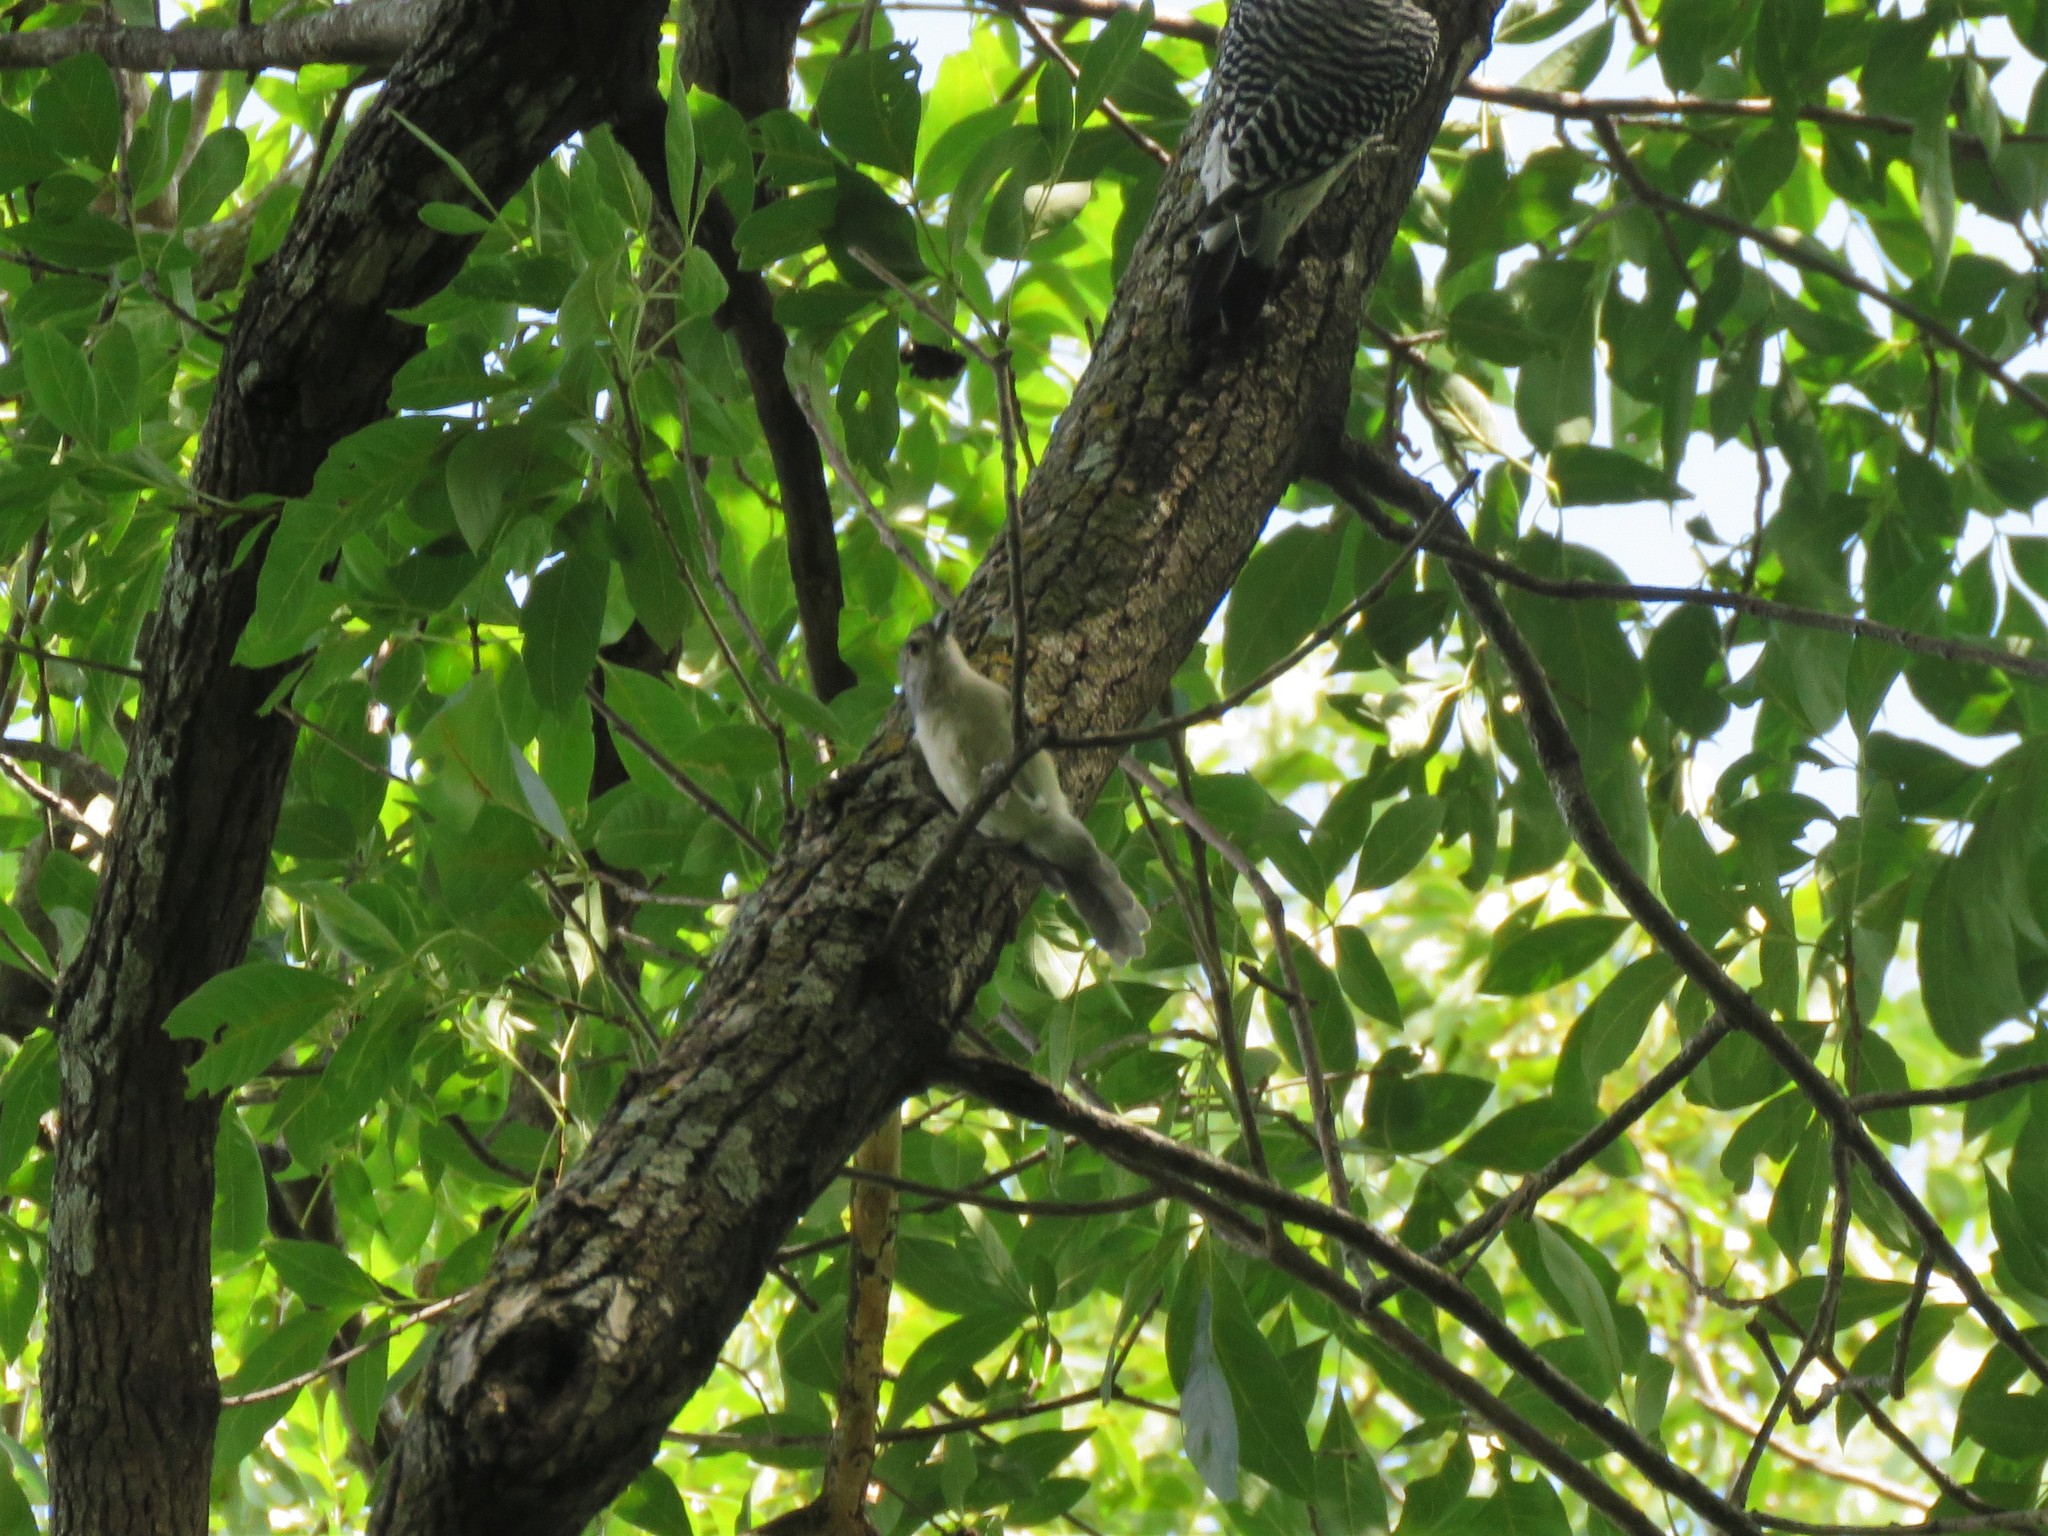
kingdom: Animalia
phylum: Chordata
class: Aves
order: Passeriformes
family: Paridae
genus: Baeolophus
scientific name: Baeolophus bicolor
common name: Tufted titmouse
